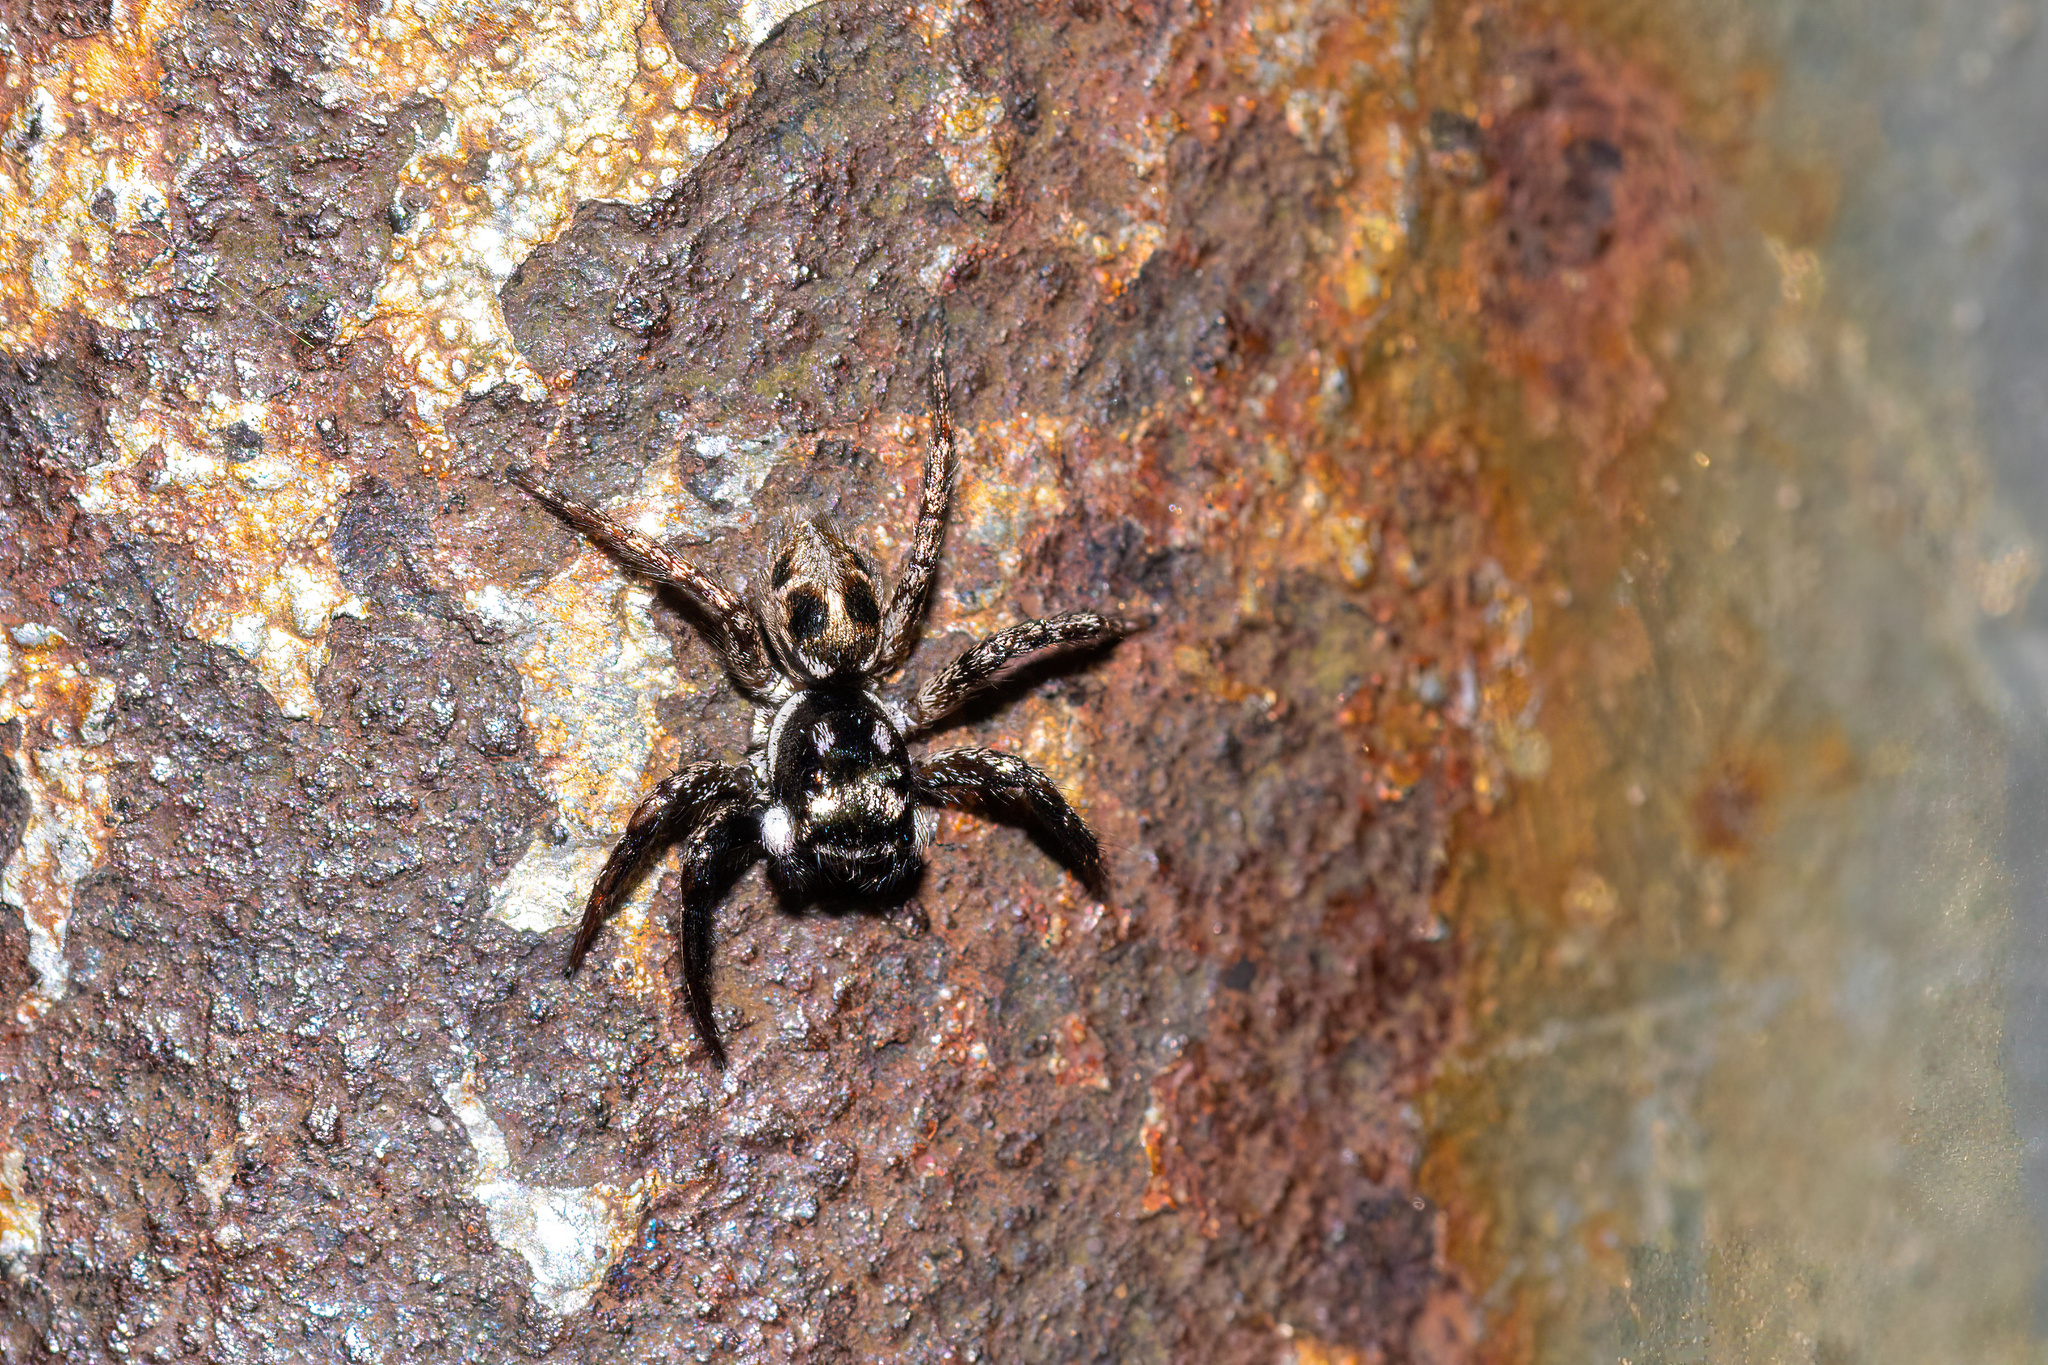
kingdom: Animalia
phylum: Arthropoda
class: Arachnida
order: Araneae
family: Salticidae
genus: Anasaitis
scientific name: Anasaitis canosa
